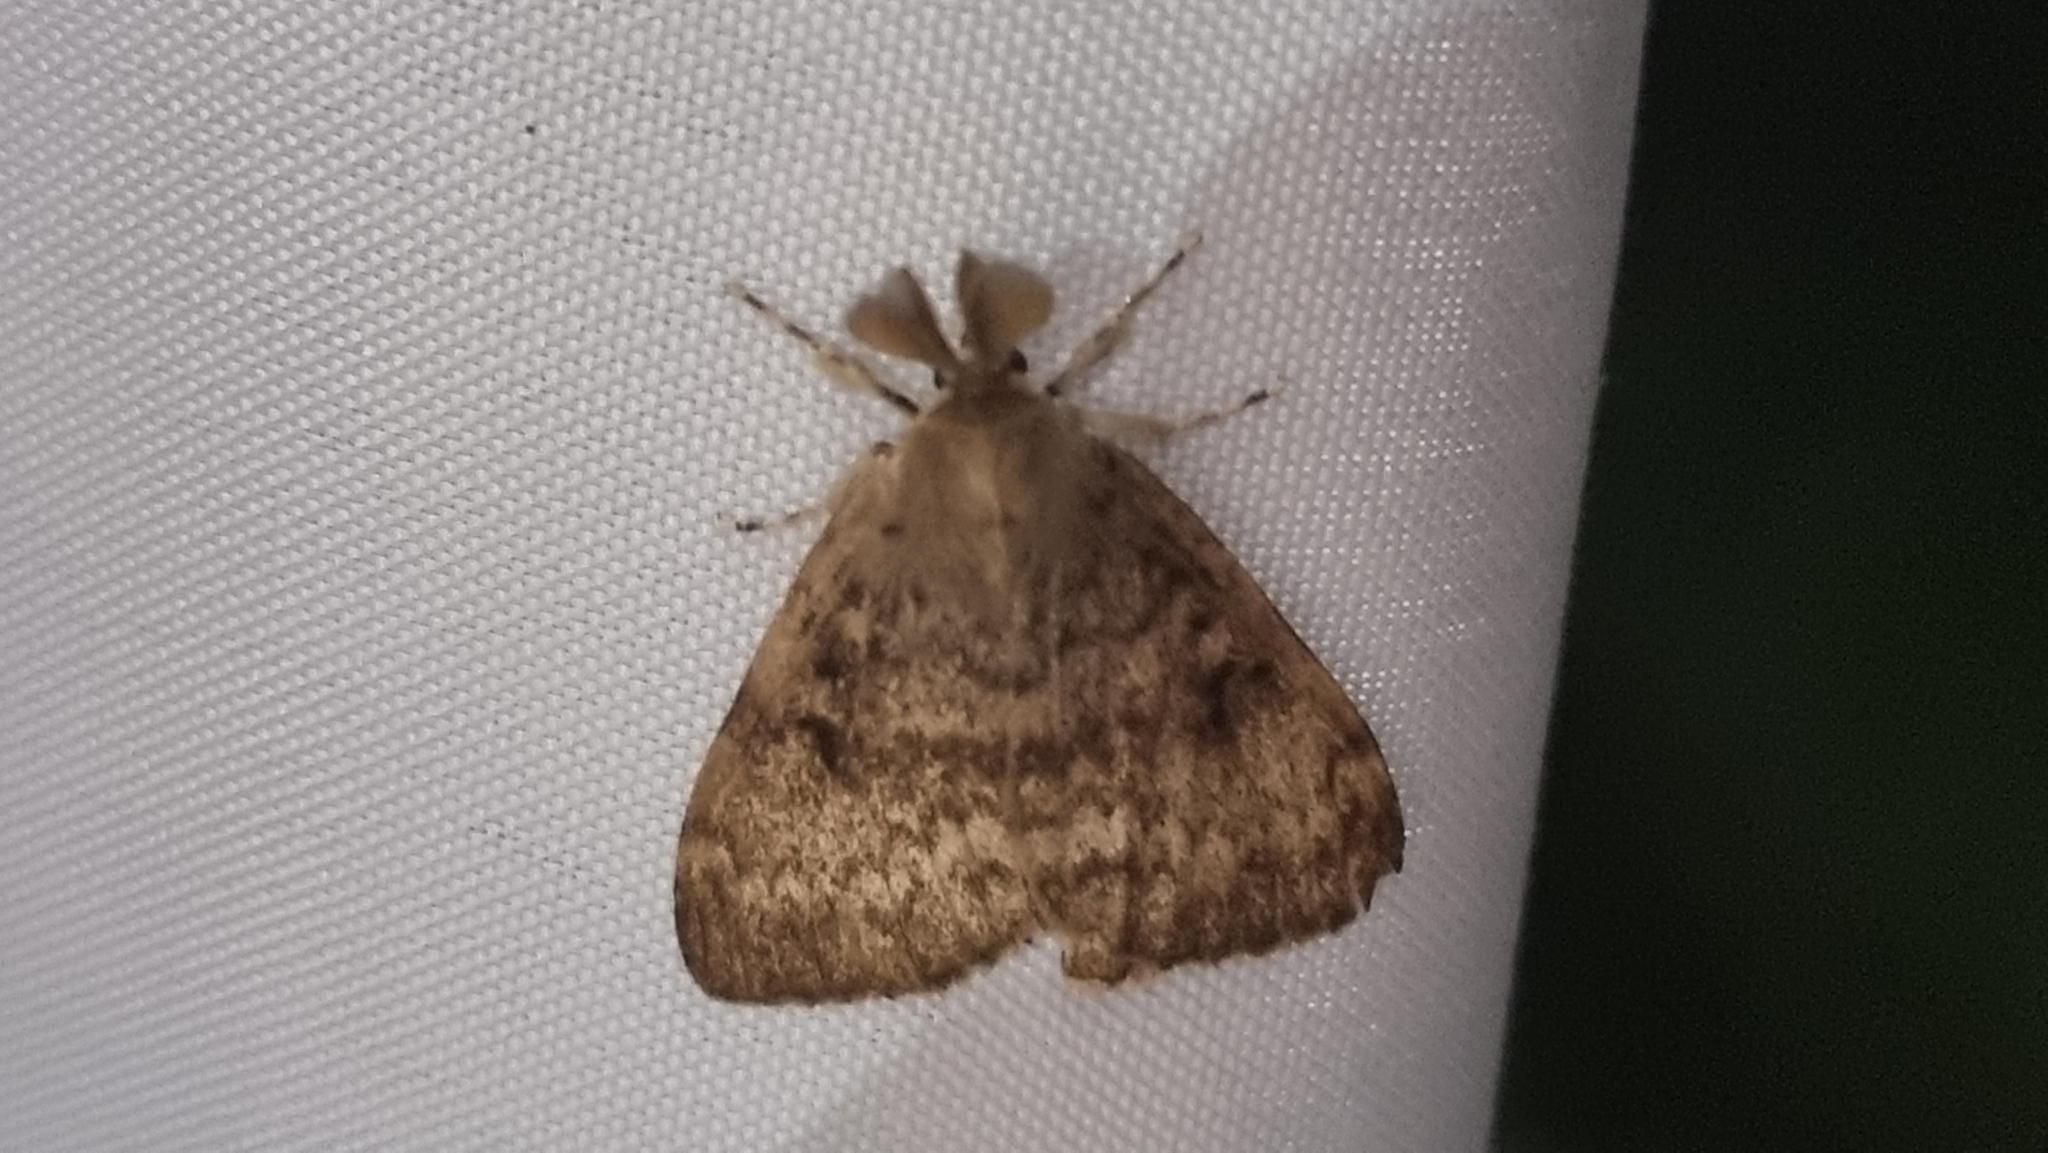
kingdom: Animalia
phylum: Arthropoda
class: Insecta
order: Lepidoptera
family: Erebidae
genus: Lymantria
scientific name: Lymantria dispar
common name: Gypsy moth
